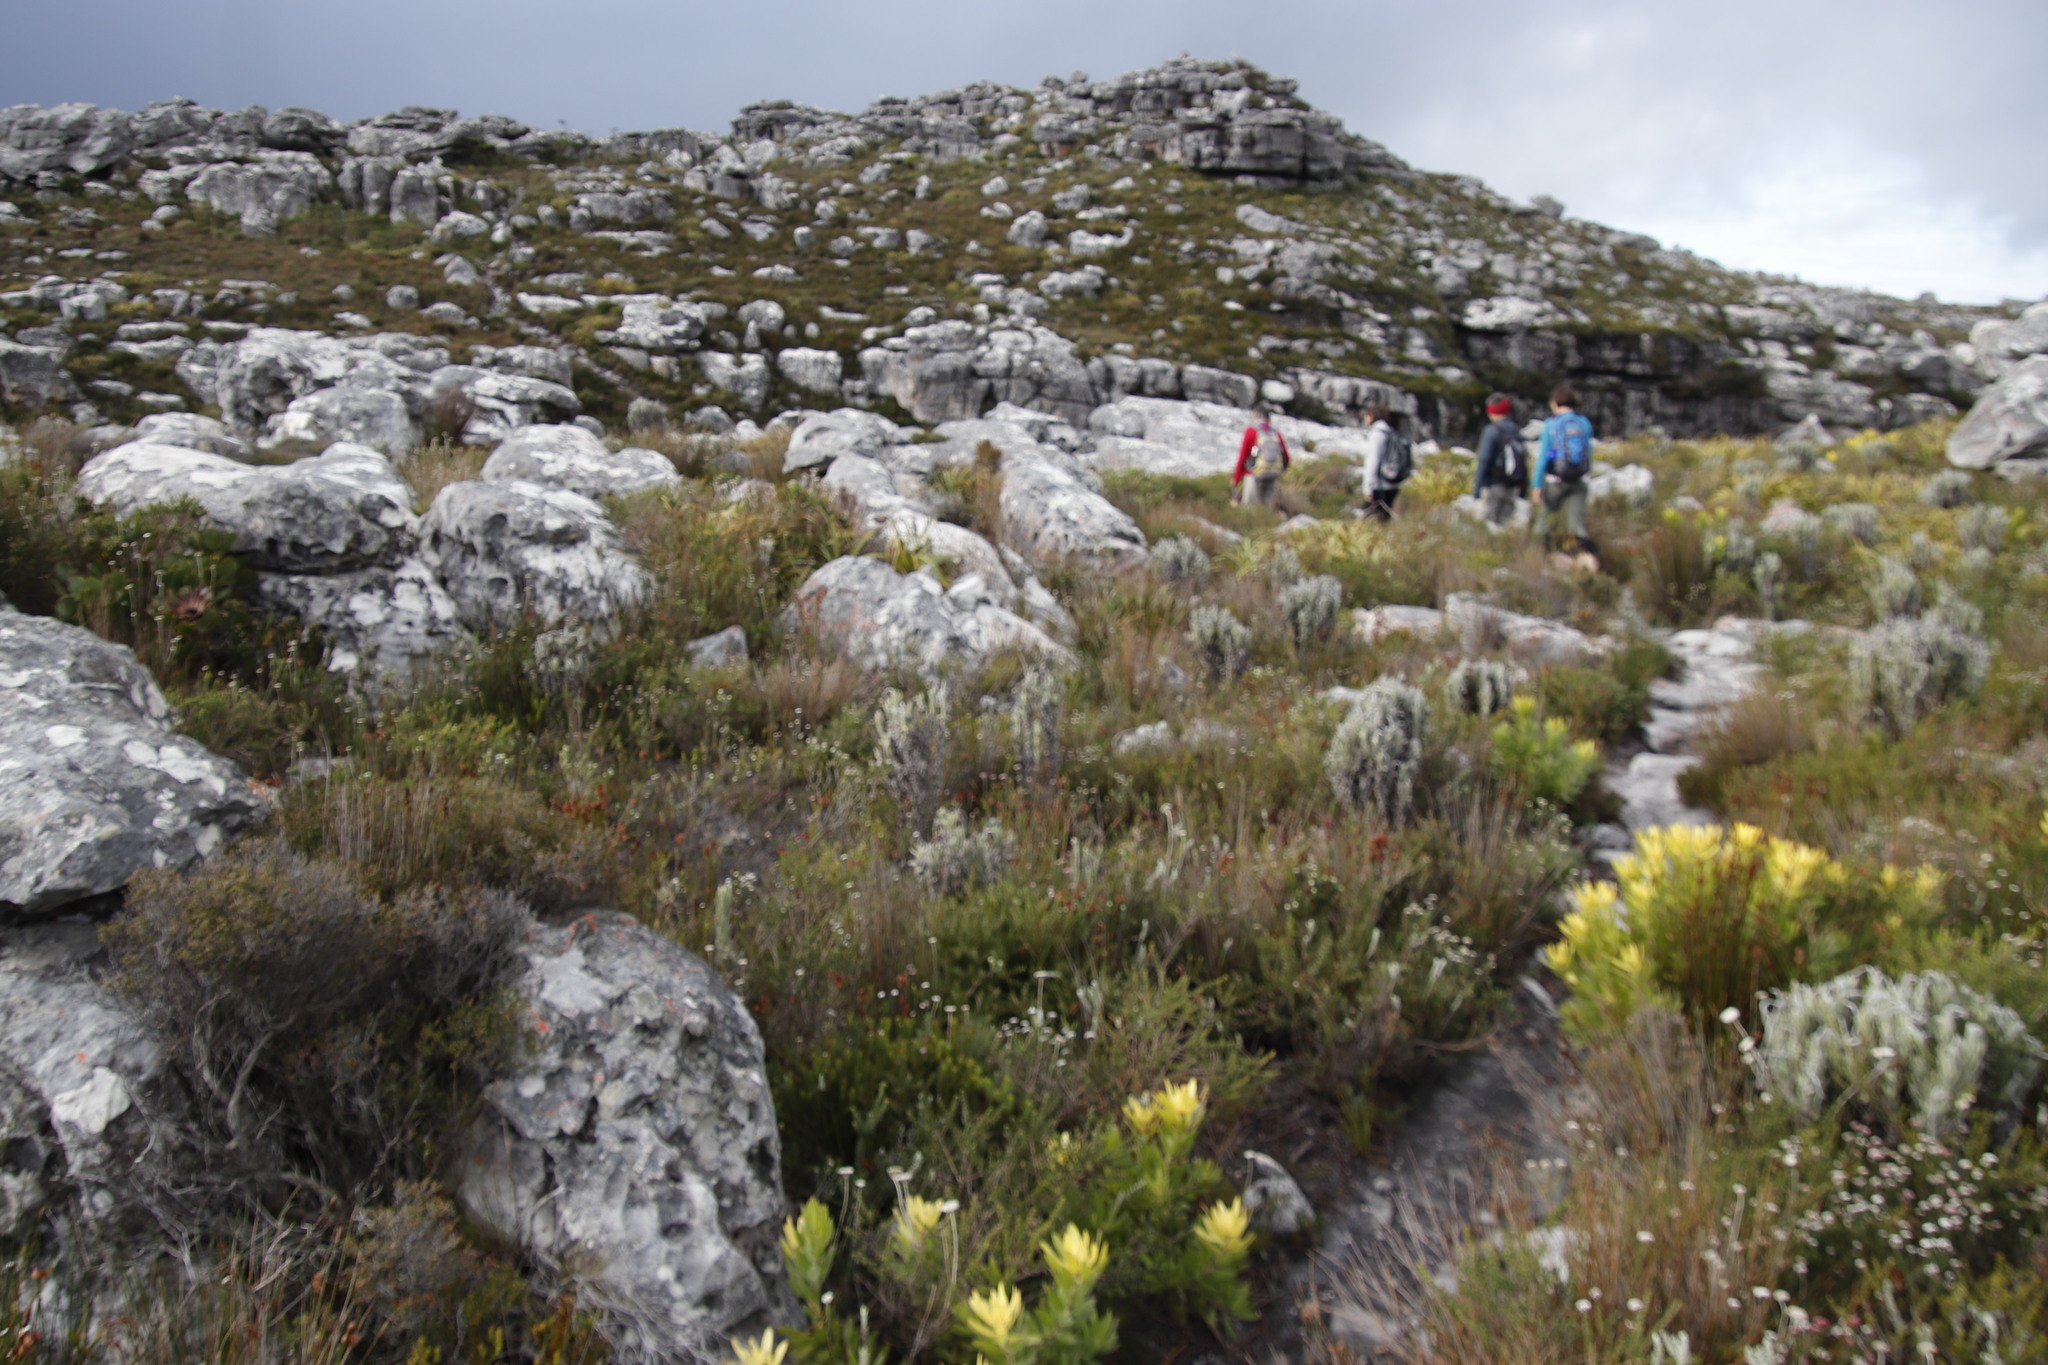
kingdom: Plantae
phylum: Tracheophyta
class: Magnoliopsida
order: Asterales
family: Asteraceae
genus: Syncarpha
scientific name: Syncarpha vestita
